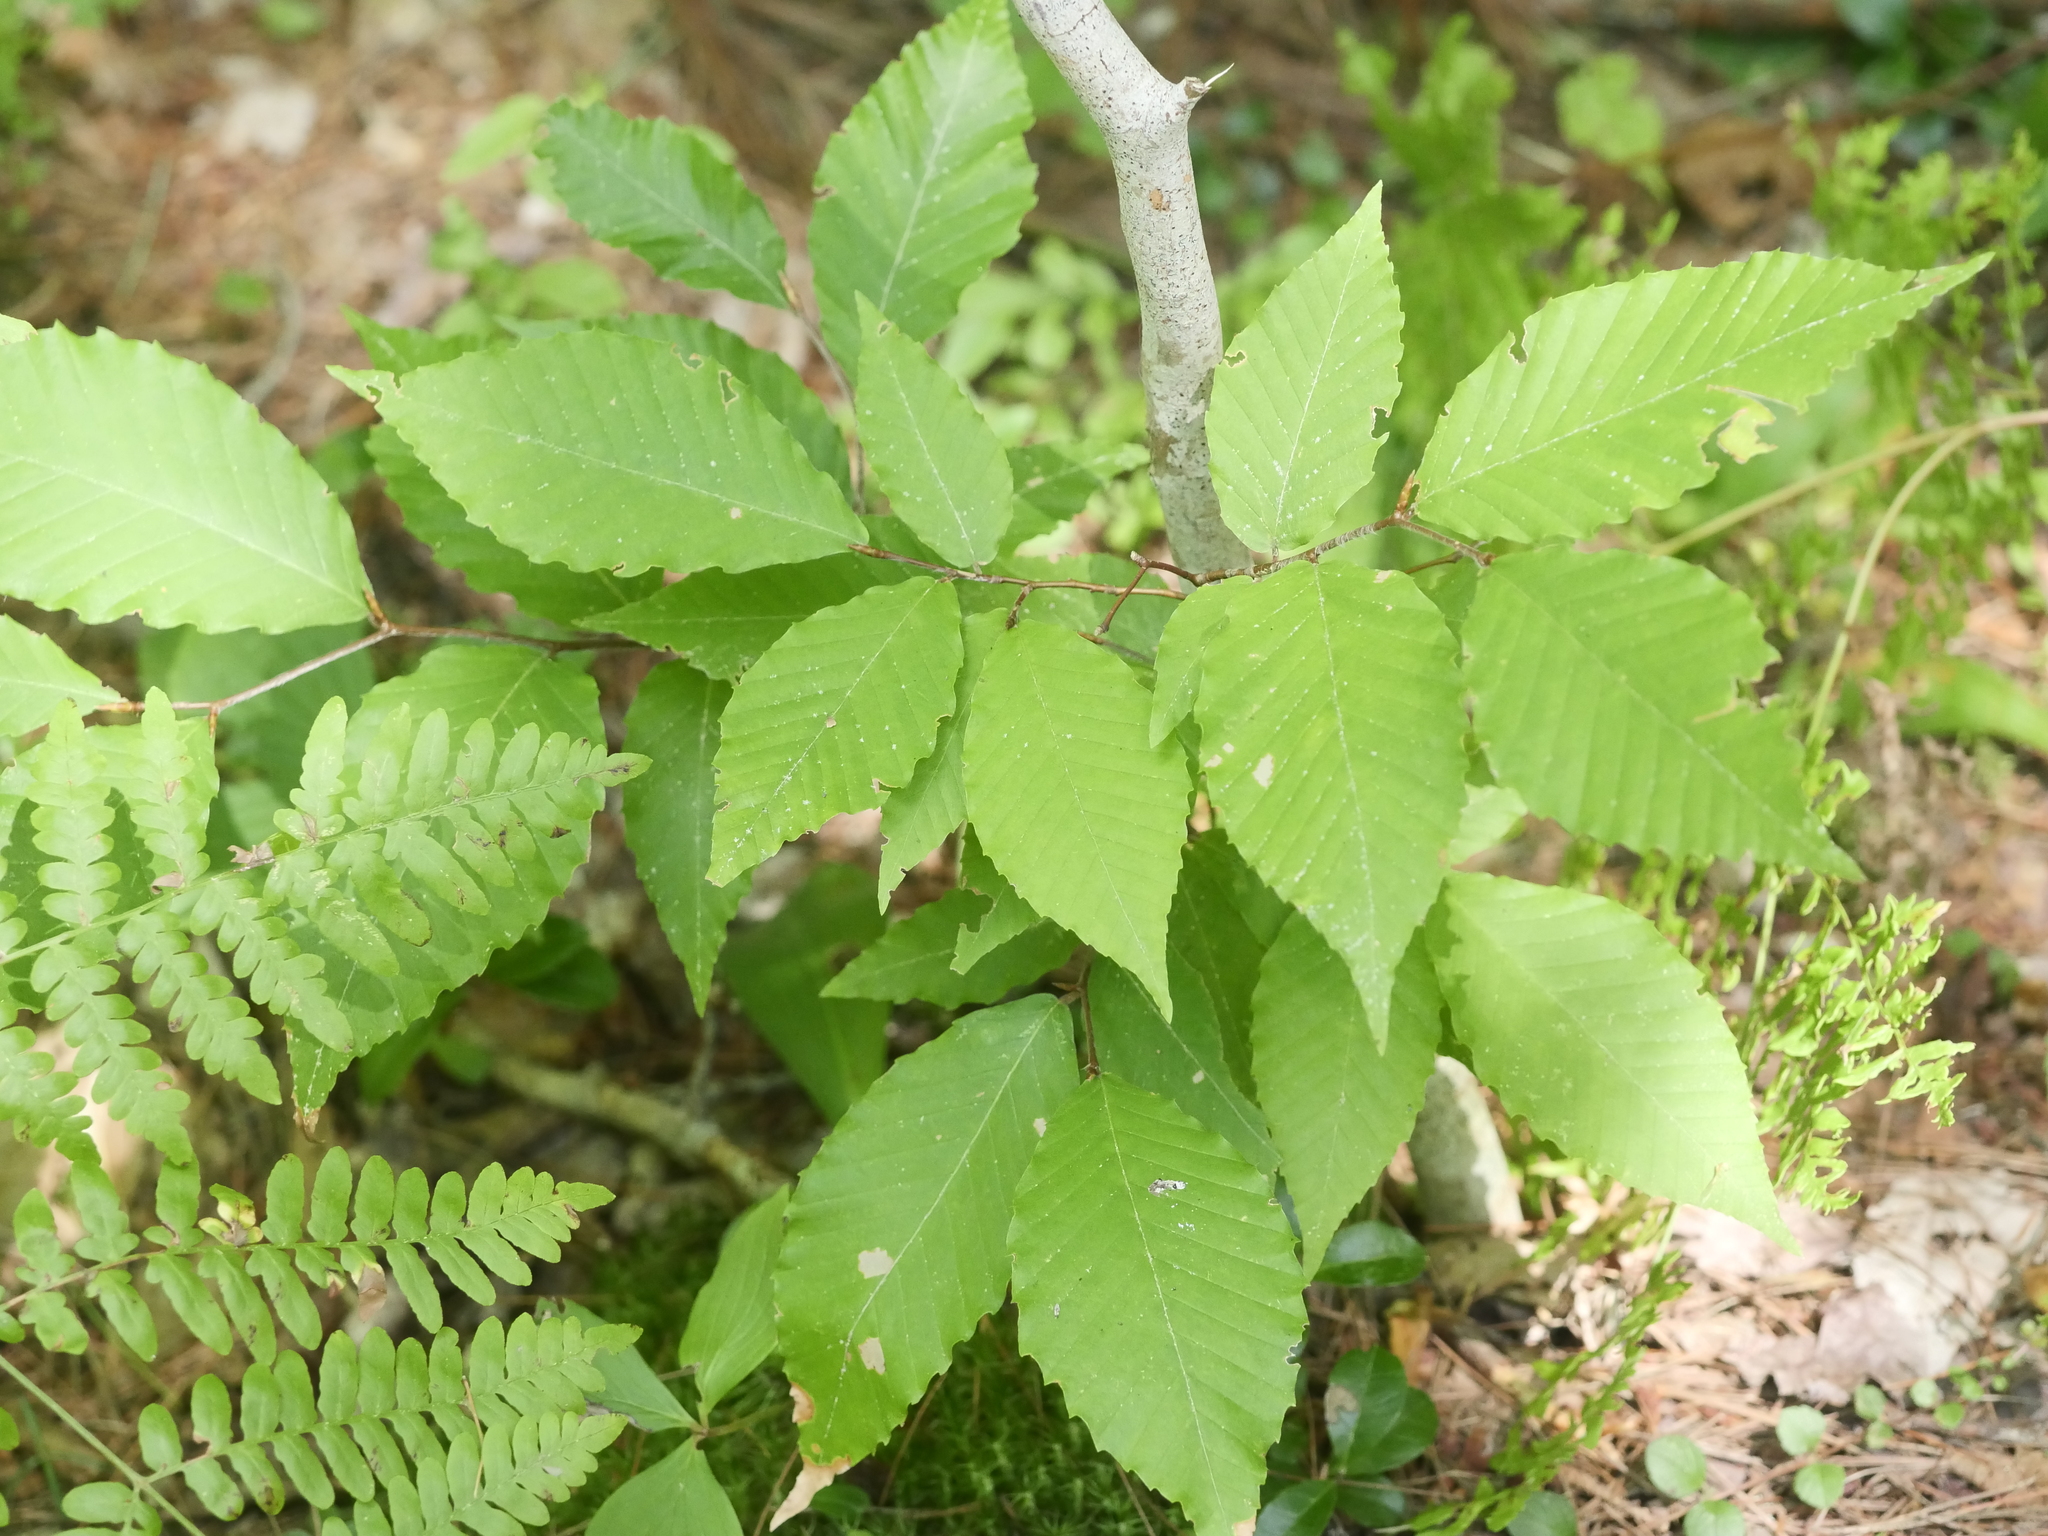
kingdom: Plantae
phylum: Tracheophyta
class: Magnoliopsida
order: Fagales
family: Fagaceae
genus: Fagus
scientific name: Fagus grandifolia
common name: American beech
